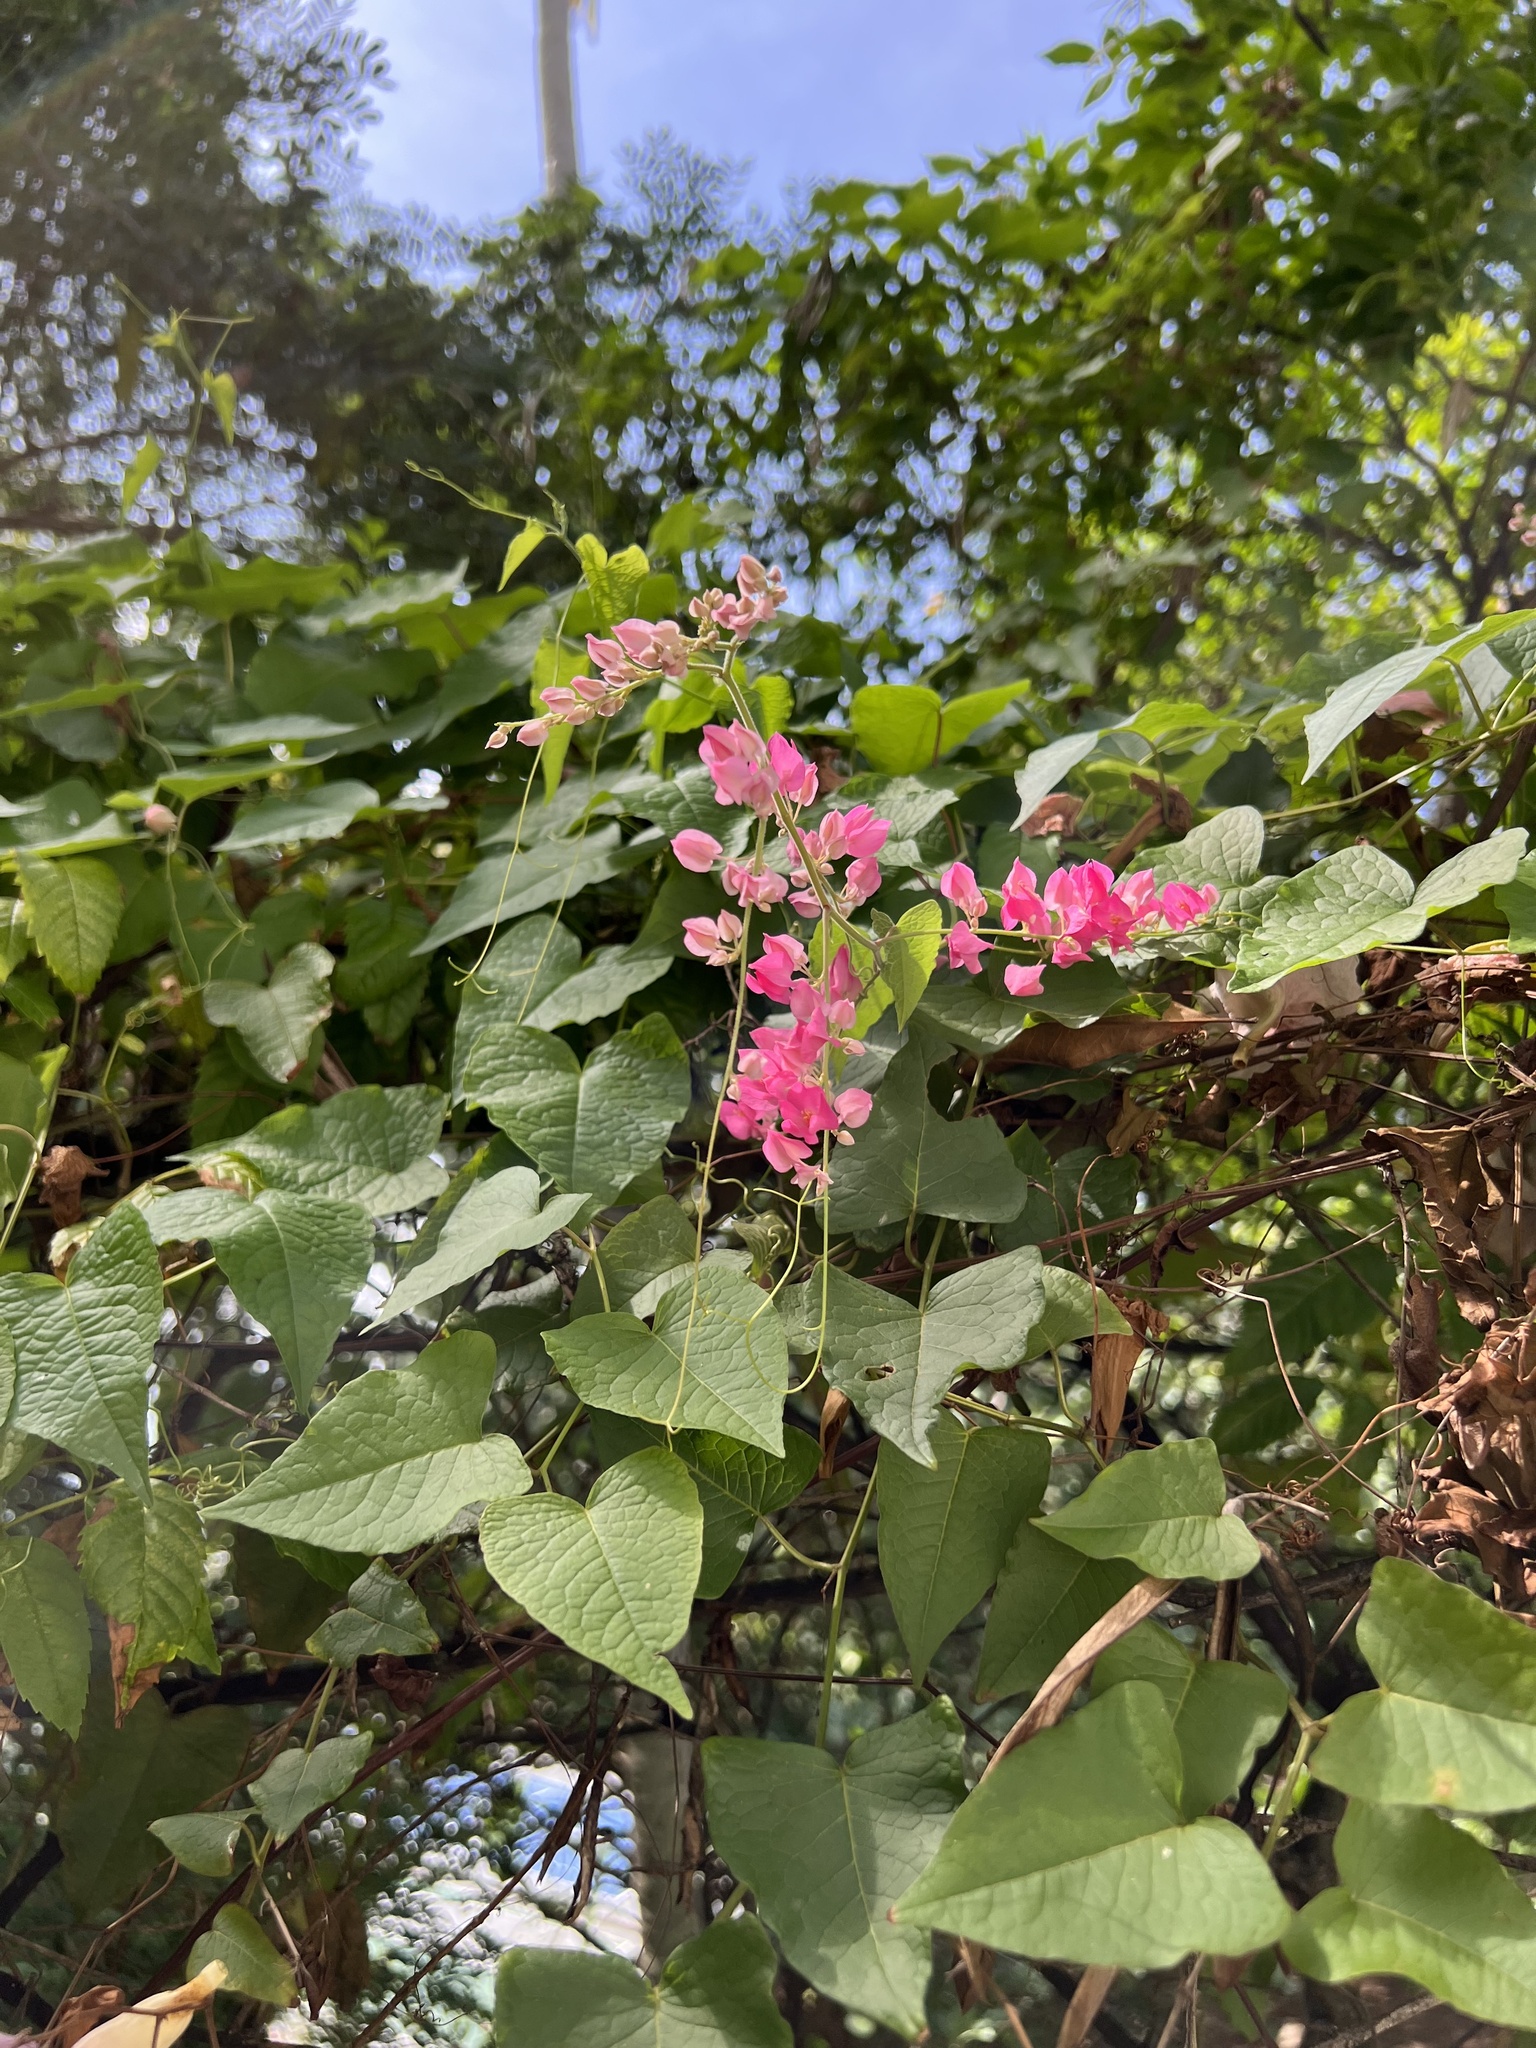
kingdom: Plantae
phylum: Tracheophyta
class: Magnoliopsida
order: Caryophyllales
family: Polygonaceae
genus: Antigonon
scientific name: Antigonon leptopus
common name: Coral vine
